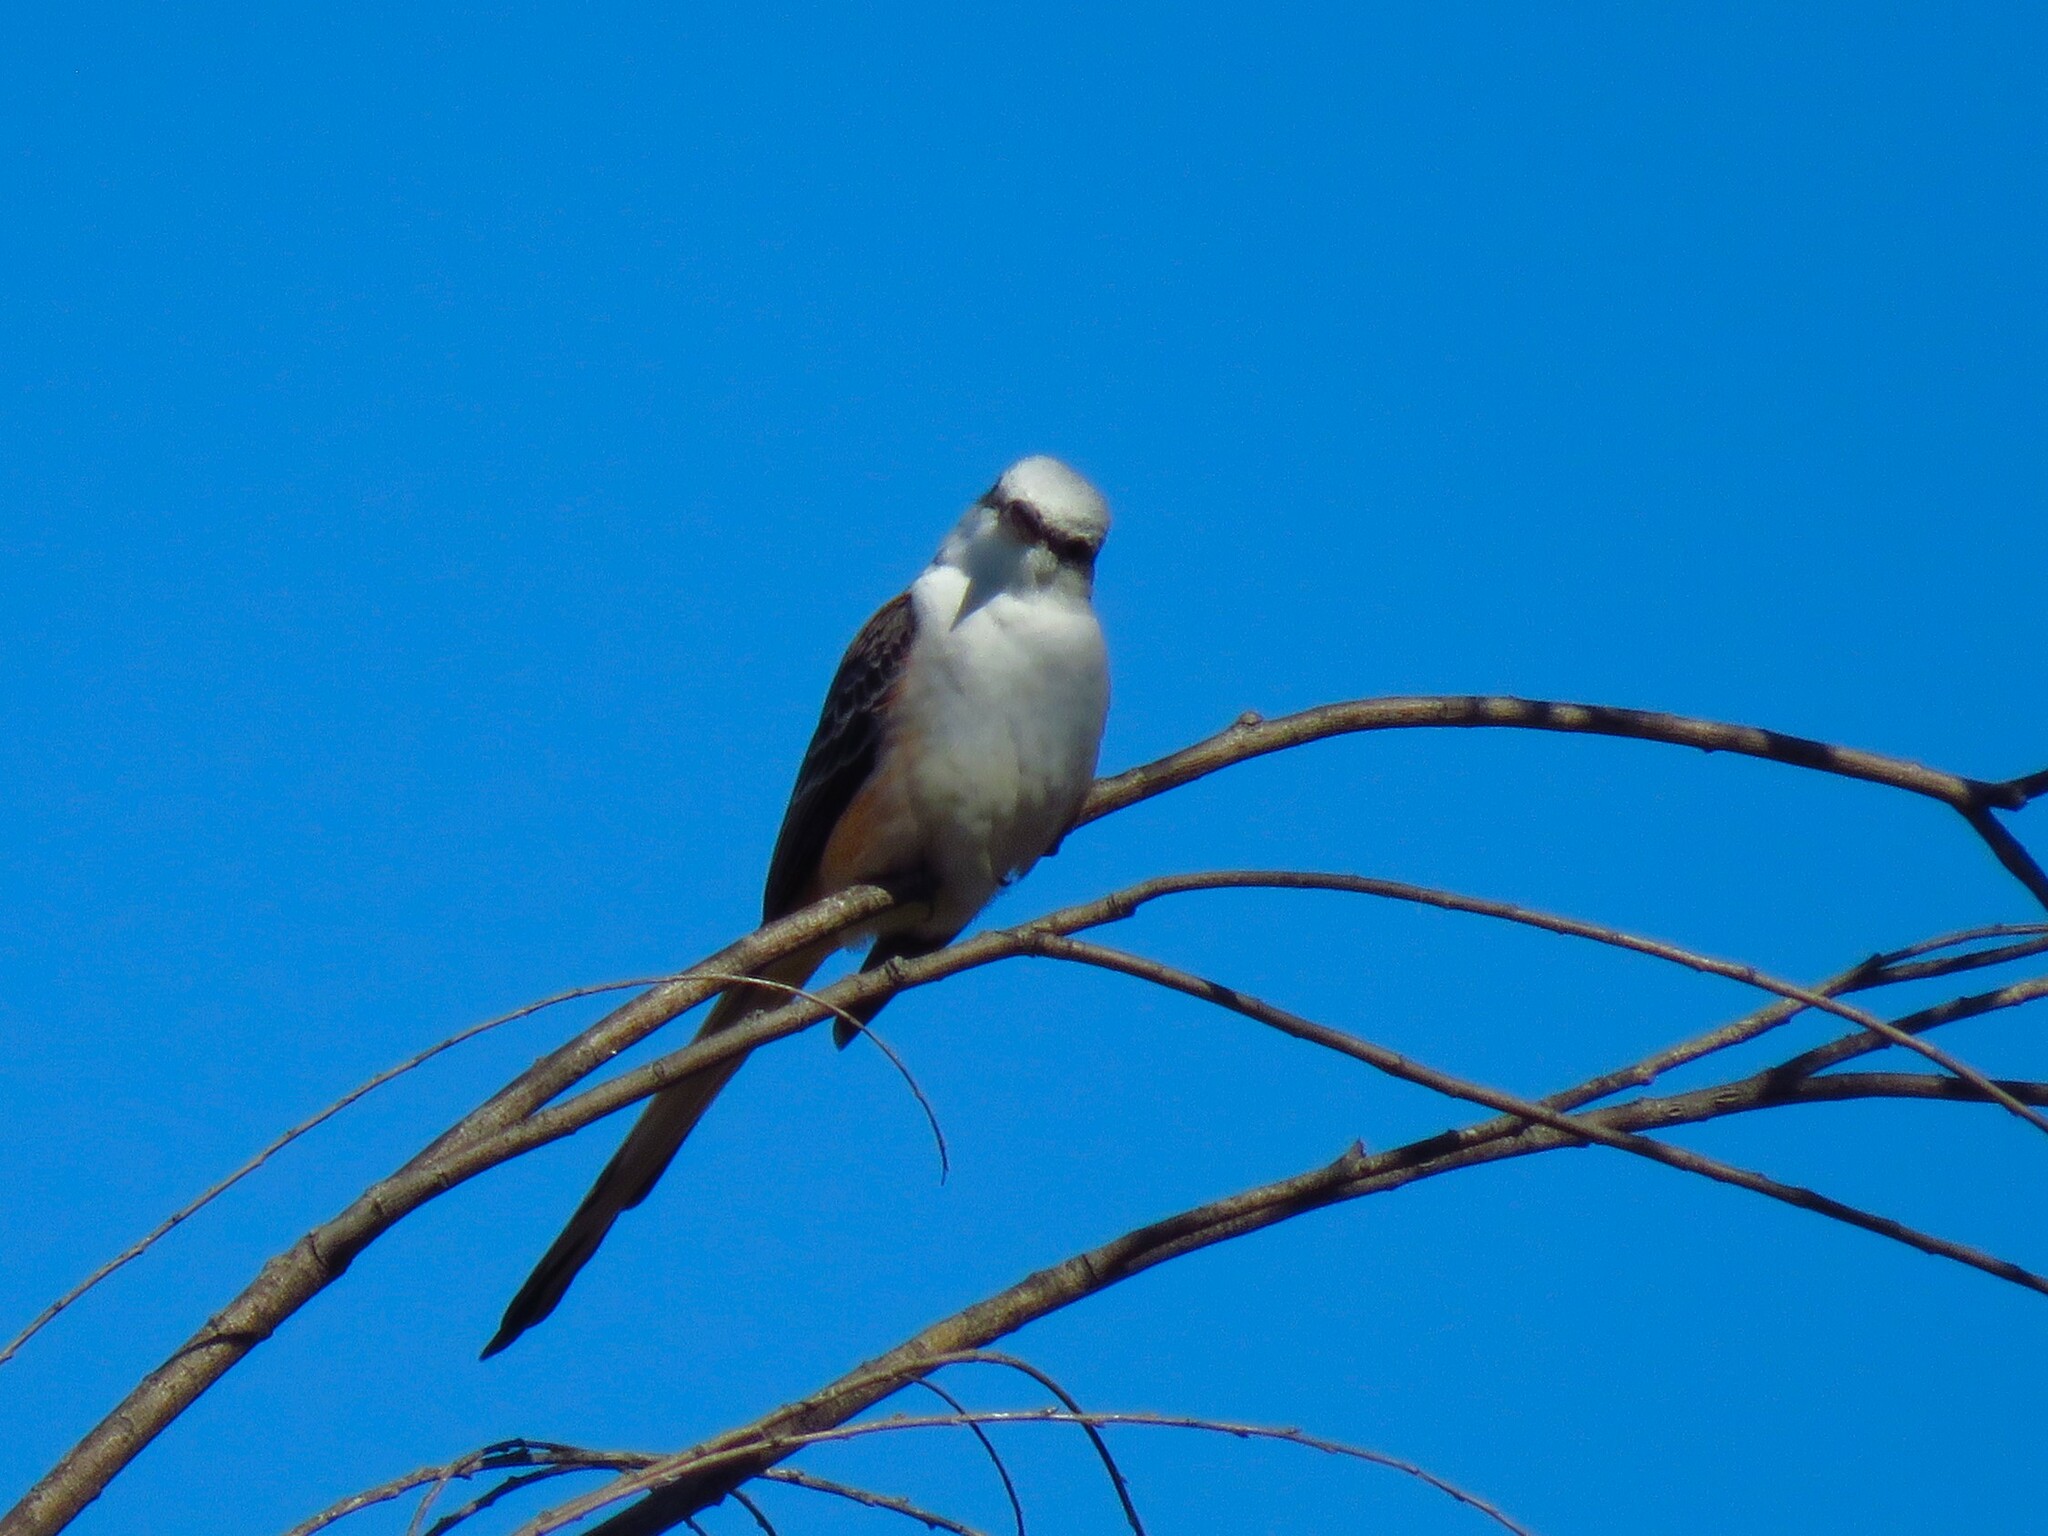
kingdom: Animalia
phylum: Chordata
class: Aves
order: Passeriformes
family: Tyrannidae
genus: Tyrannus
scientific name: Tyrannus forficatus
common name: Scissor-tailed flycatcher
